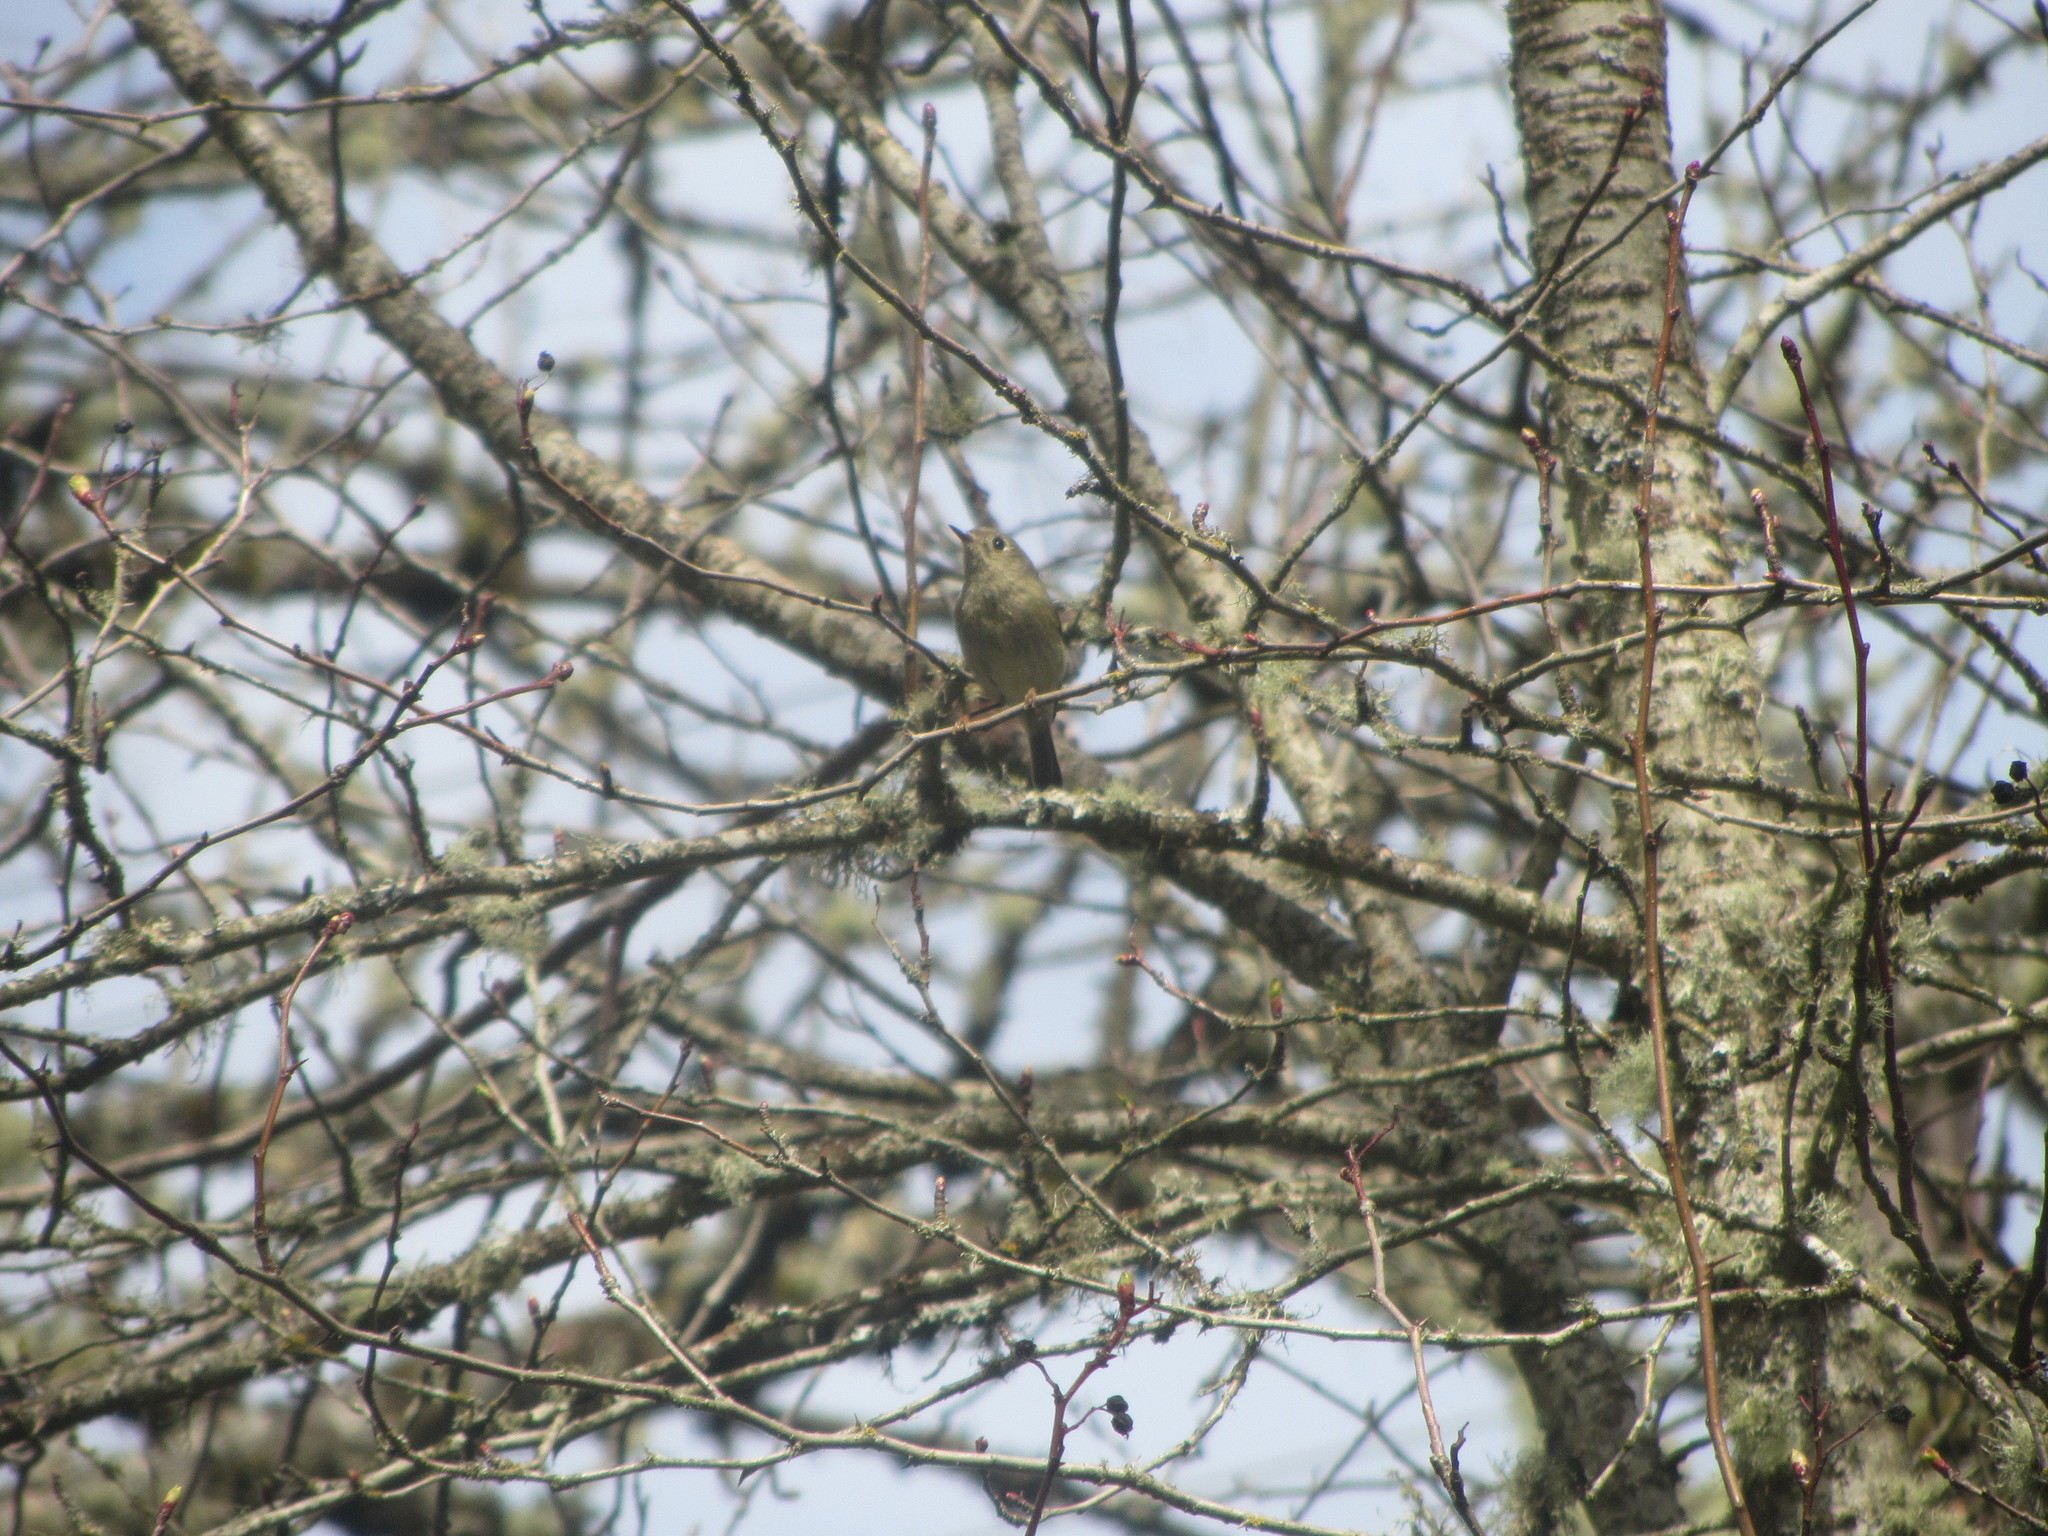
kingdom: Animalia
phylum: Chordata
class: Aves
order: Passeriformes
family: Regulidae
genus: Regulus
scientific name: Regulus calendula
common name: Ruby-crowned kinglet
